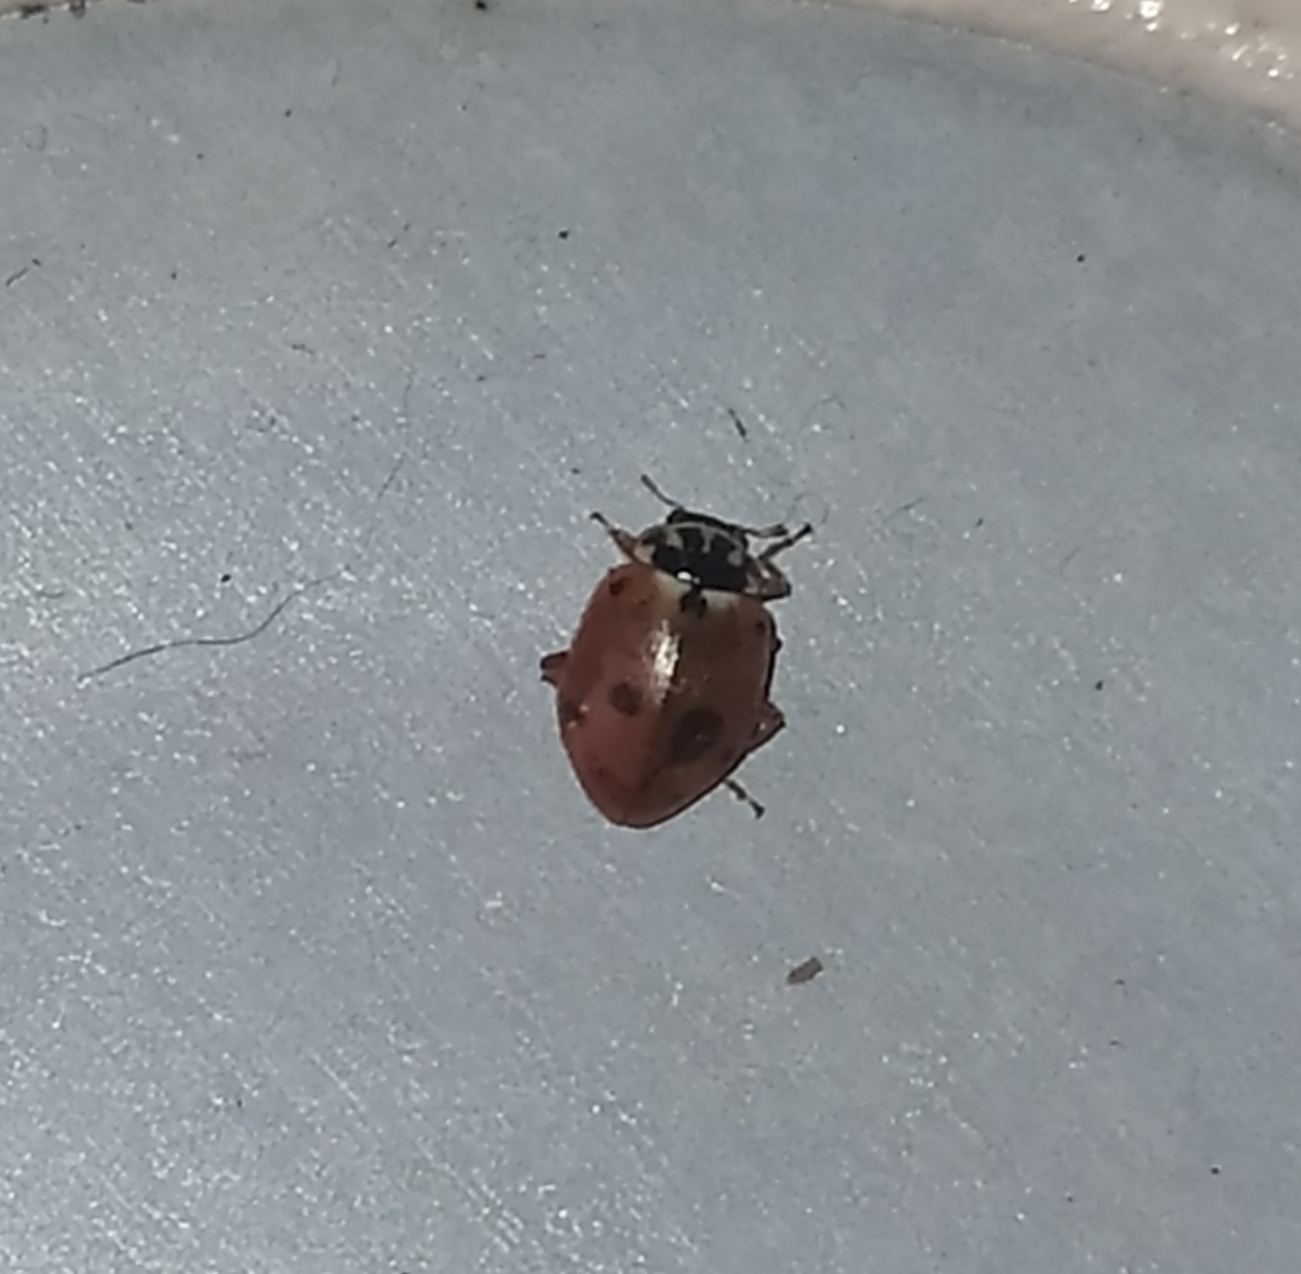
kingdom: Animalia
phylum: Arthropoda
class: Insecta
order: Coleoptera
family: Coccinellidae
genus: Hippodamia
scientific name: Hippodamia variegata
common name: Ladybird beetle
